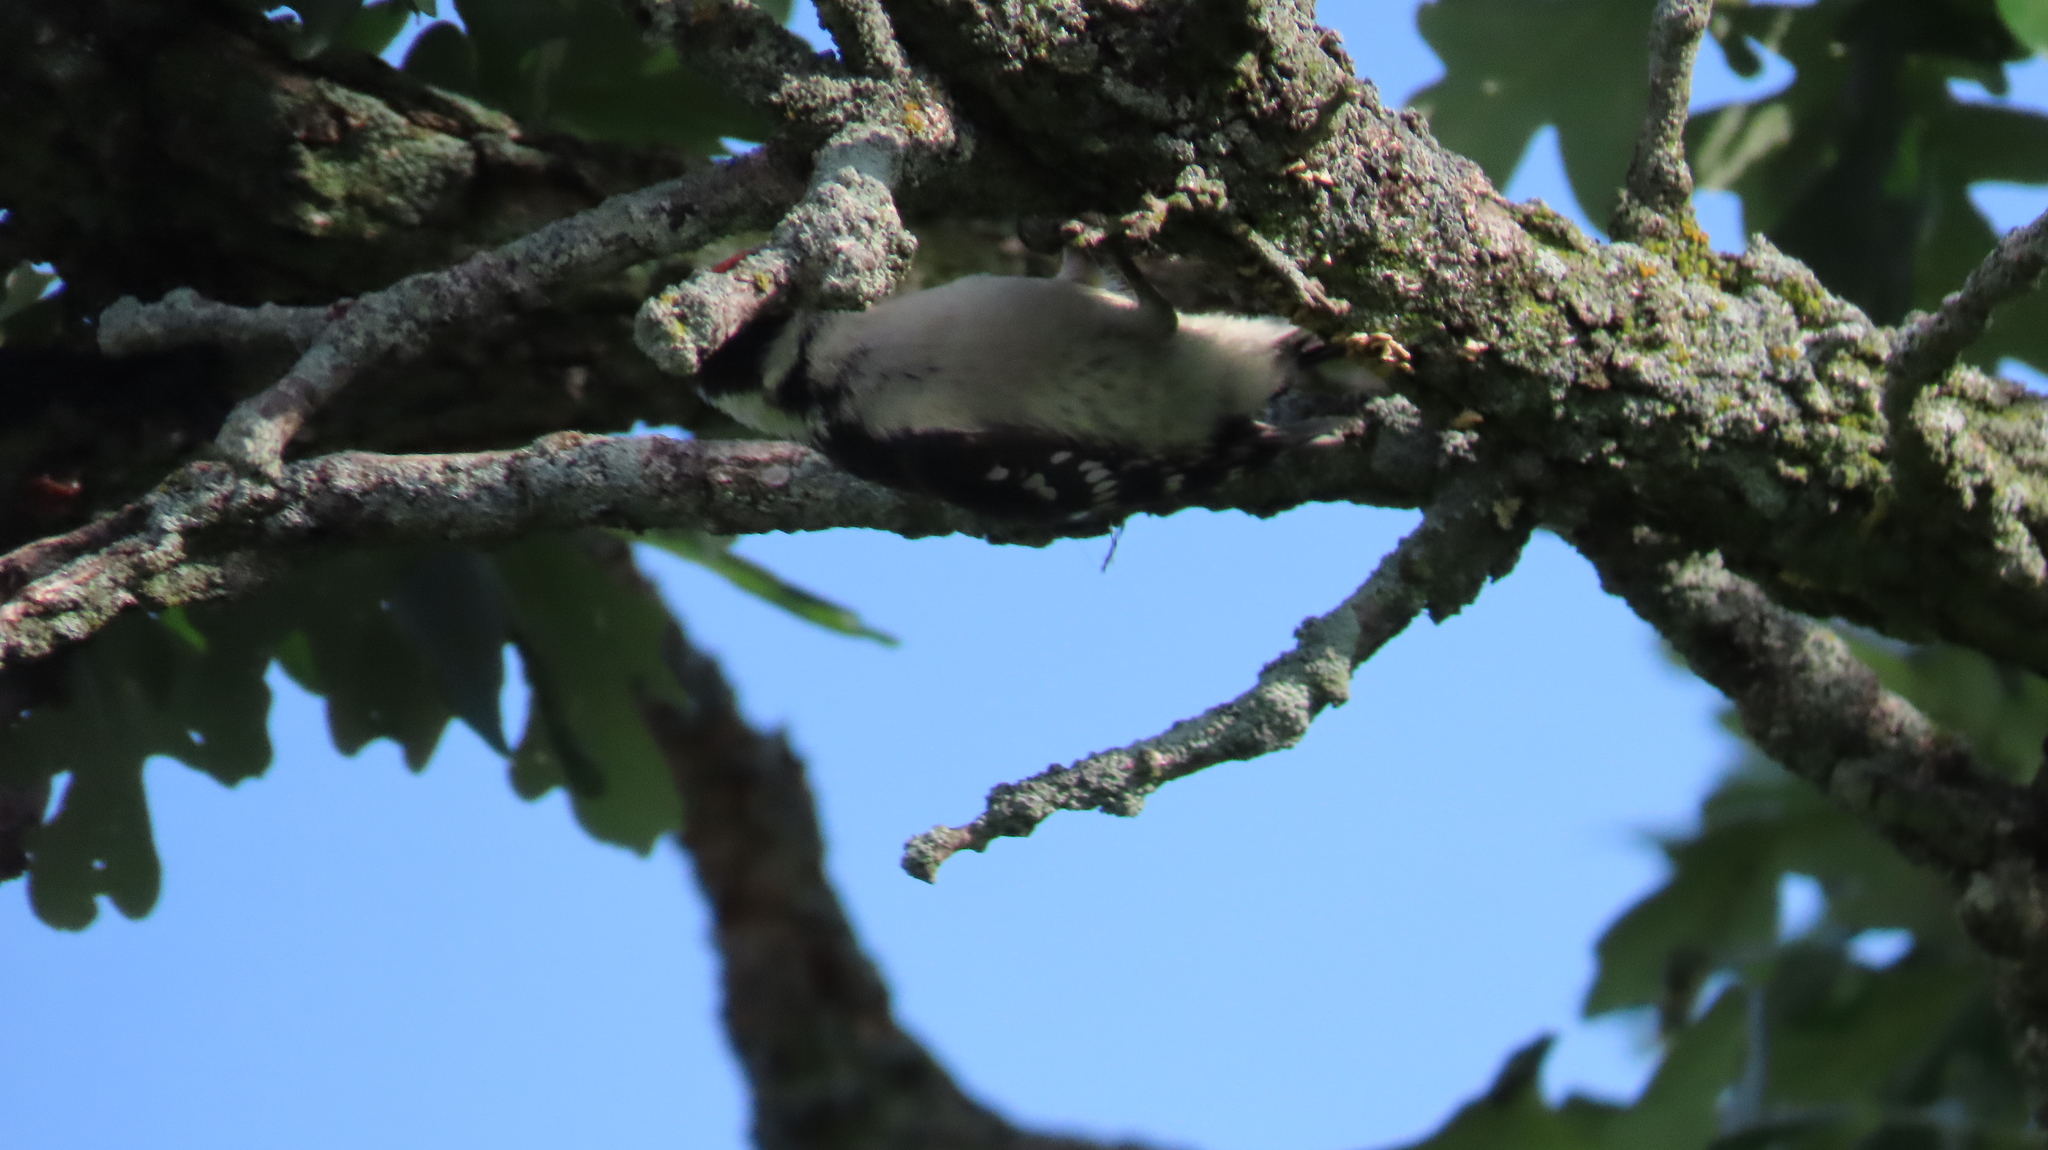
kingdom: Animalia
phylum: Chordata
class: Aves
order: Piciformes
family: Picidae
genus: Dryobates
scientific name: Dryobates pubescens
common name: Downy woodpecker
